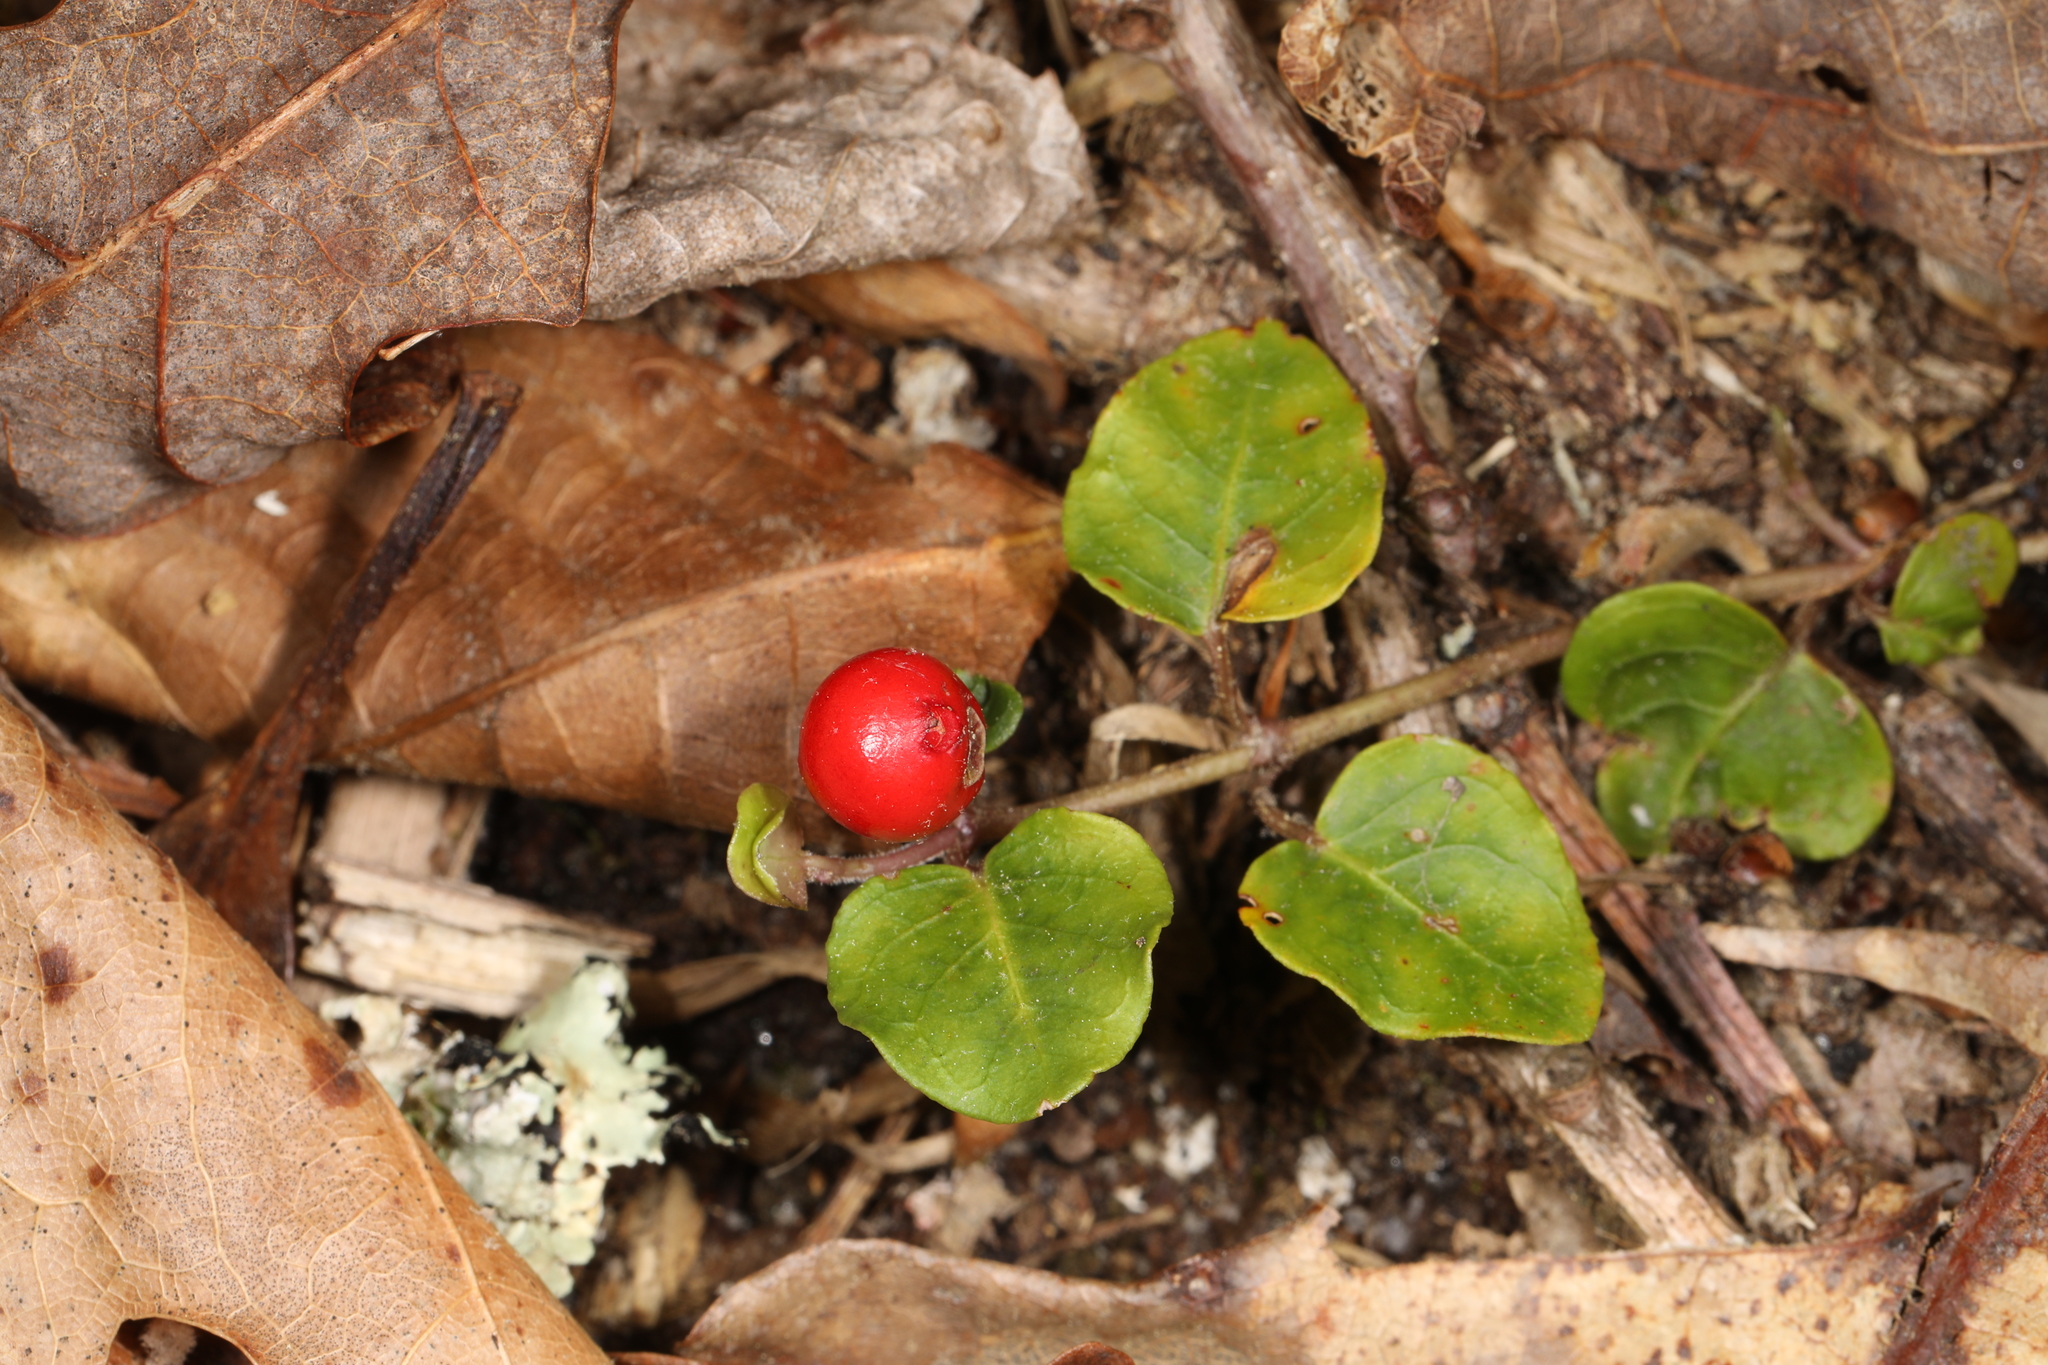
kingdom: Plantae
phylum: Tracheophyta
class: Magnoliopsida
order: Gentianales
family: Rubiaceae
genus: Mitchella
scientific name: Mitchella repens
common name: Partridge-berry
